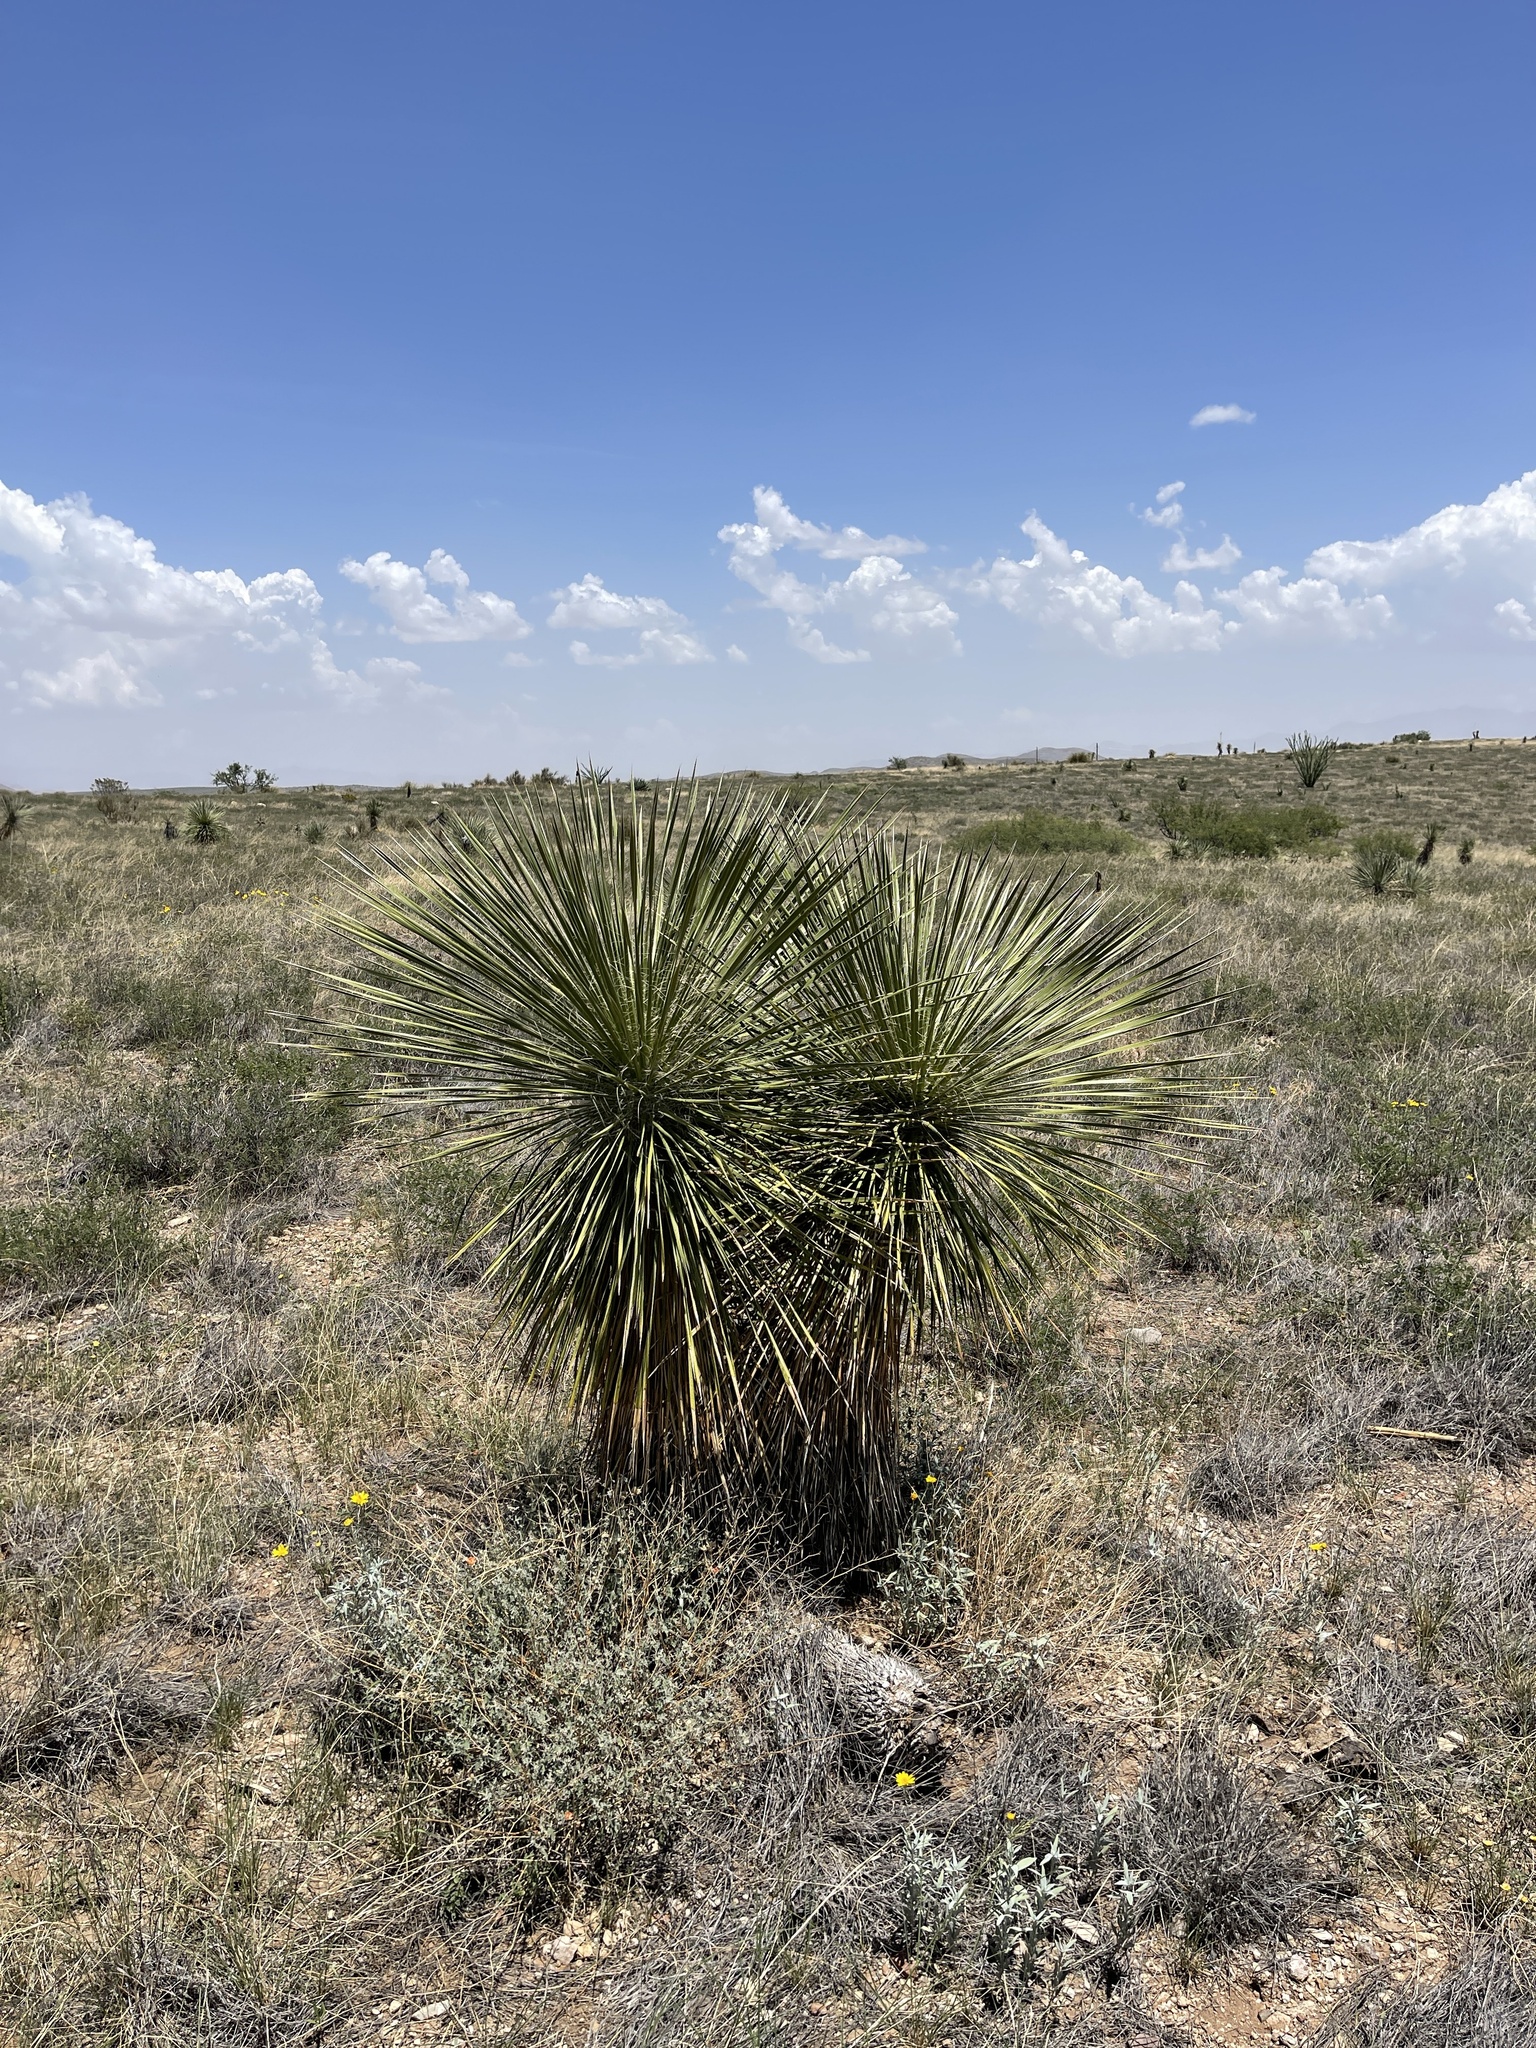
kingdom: Plantae
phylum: Tracheophyta
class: Liliopsida
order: Asparagales
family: Asparagaceae
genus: Yucca
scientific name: Yucca elata
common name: Palmella
